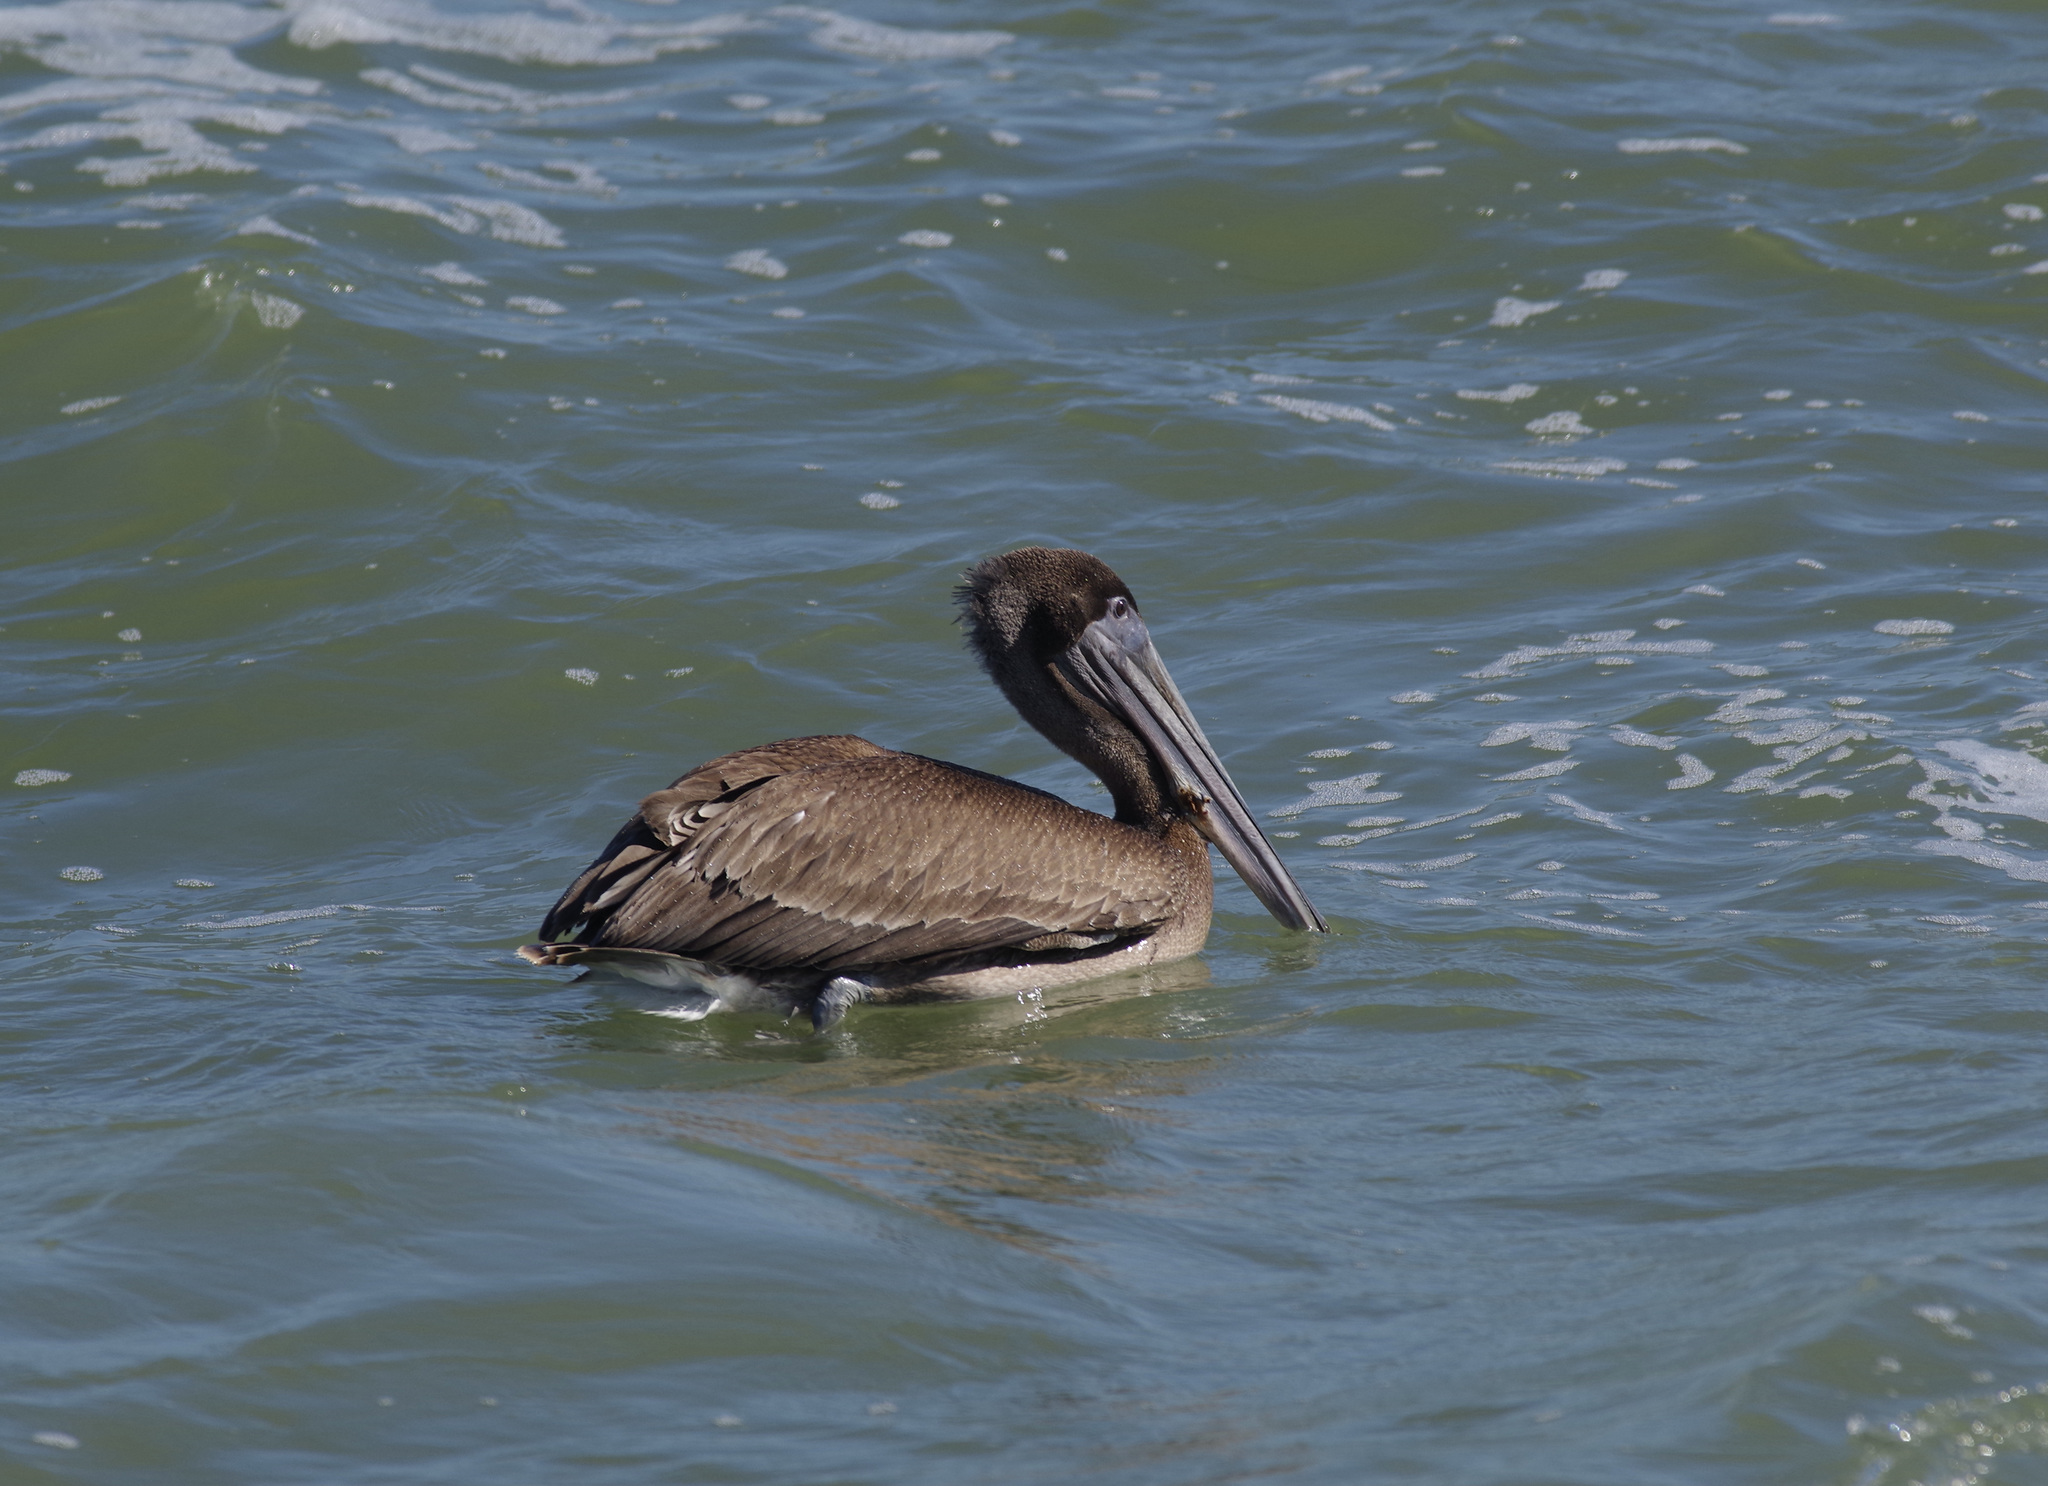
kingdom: Animalia
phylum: Chordata
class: Aves
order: Pelecaniformes
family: Pelecanidae
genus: Pelecanus
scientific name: Pelecanus occidentalis
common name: Brown pelican
